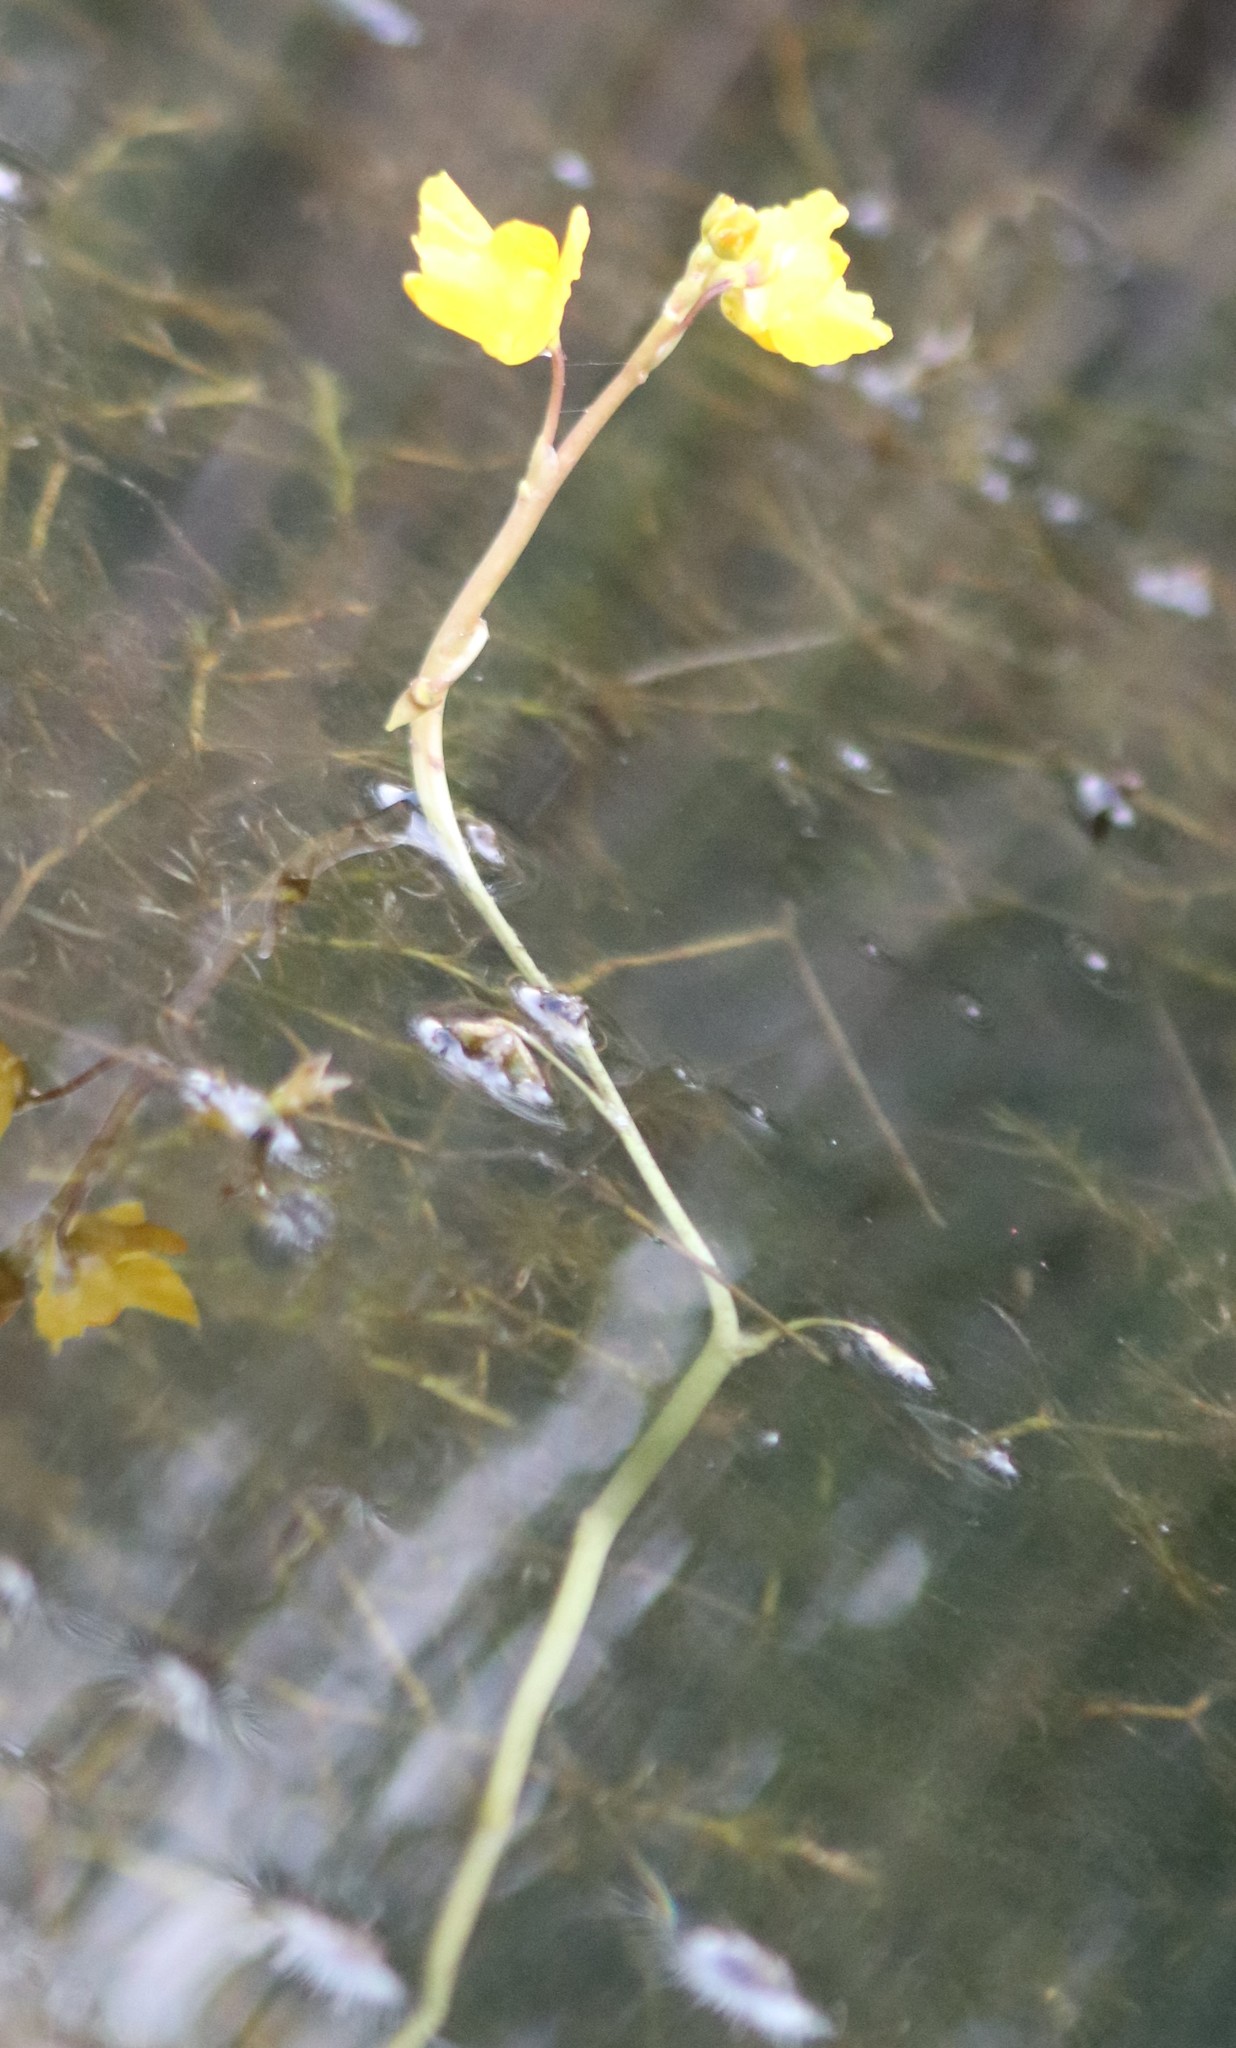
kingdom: Plantae
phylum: Tracheophyta
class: Magnoliopsida
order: Lamiales
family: Lentibulariaceae
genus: Utricularia
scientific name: Utricularia macrorhiza
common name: Common bladderwort
